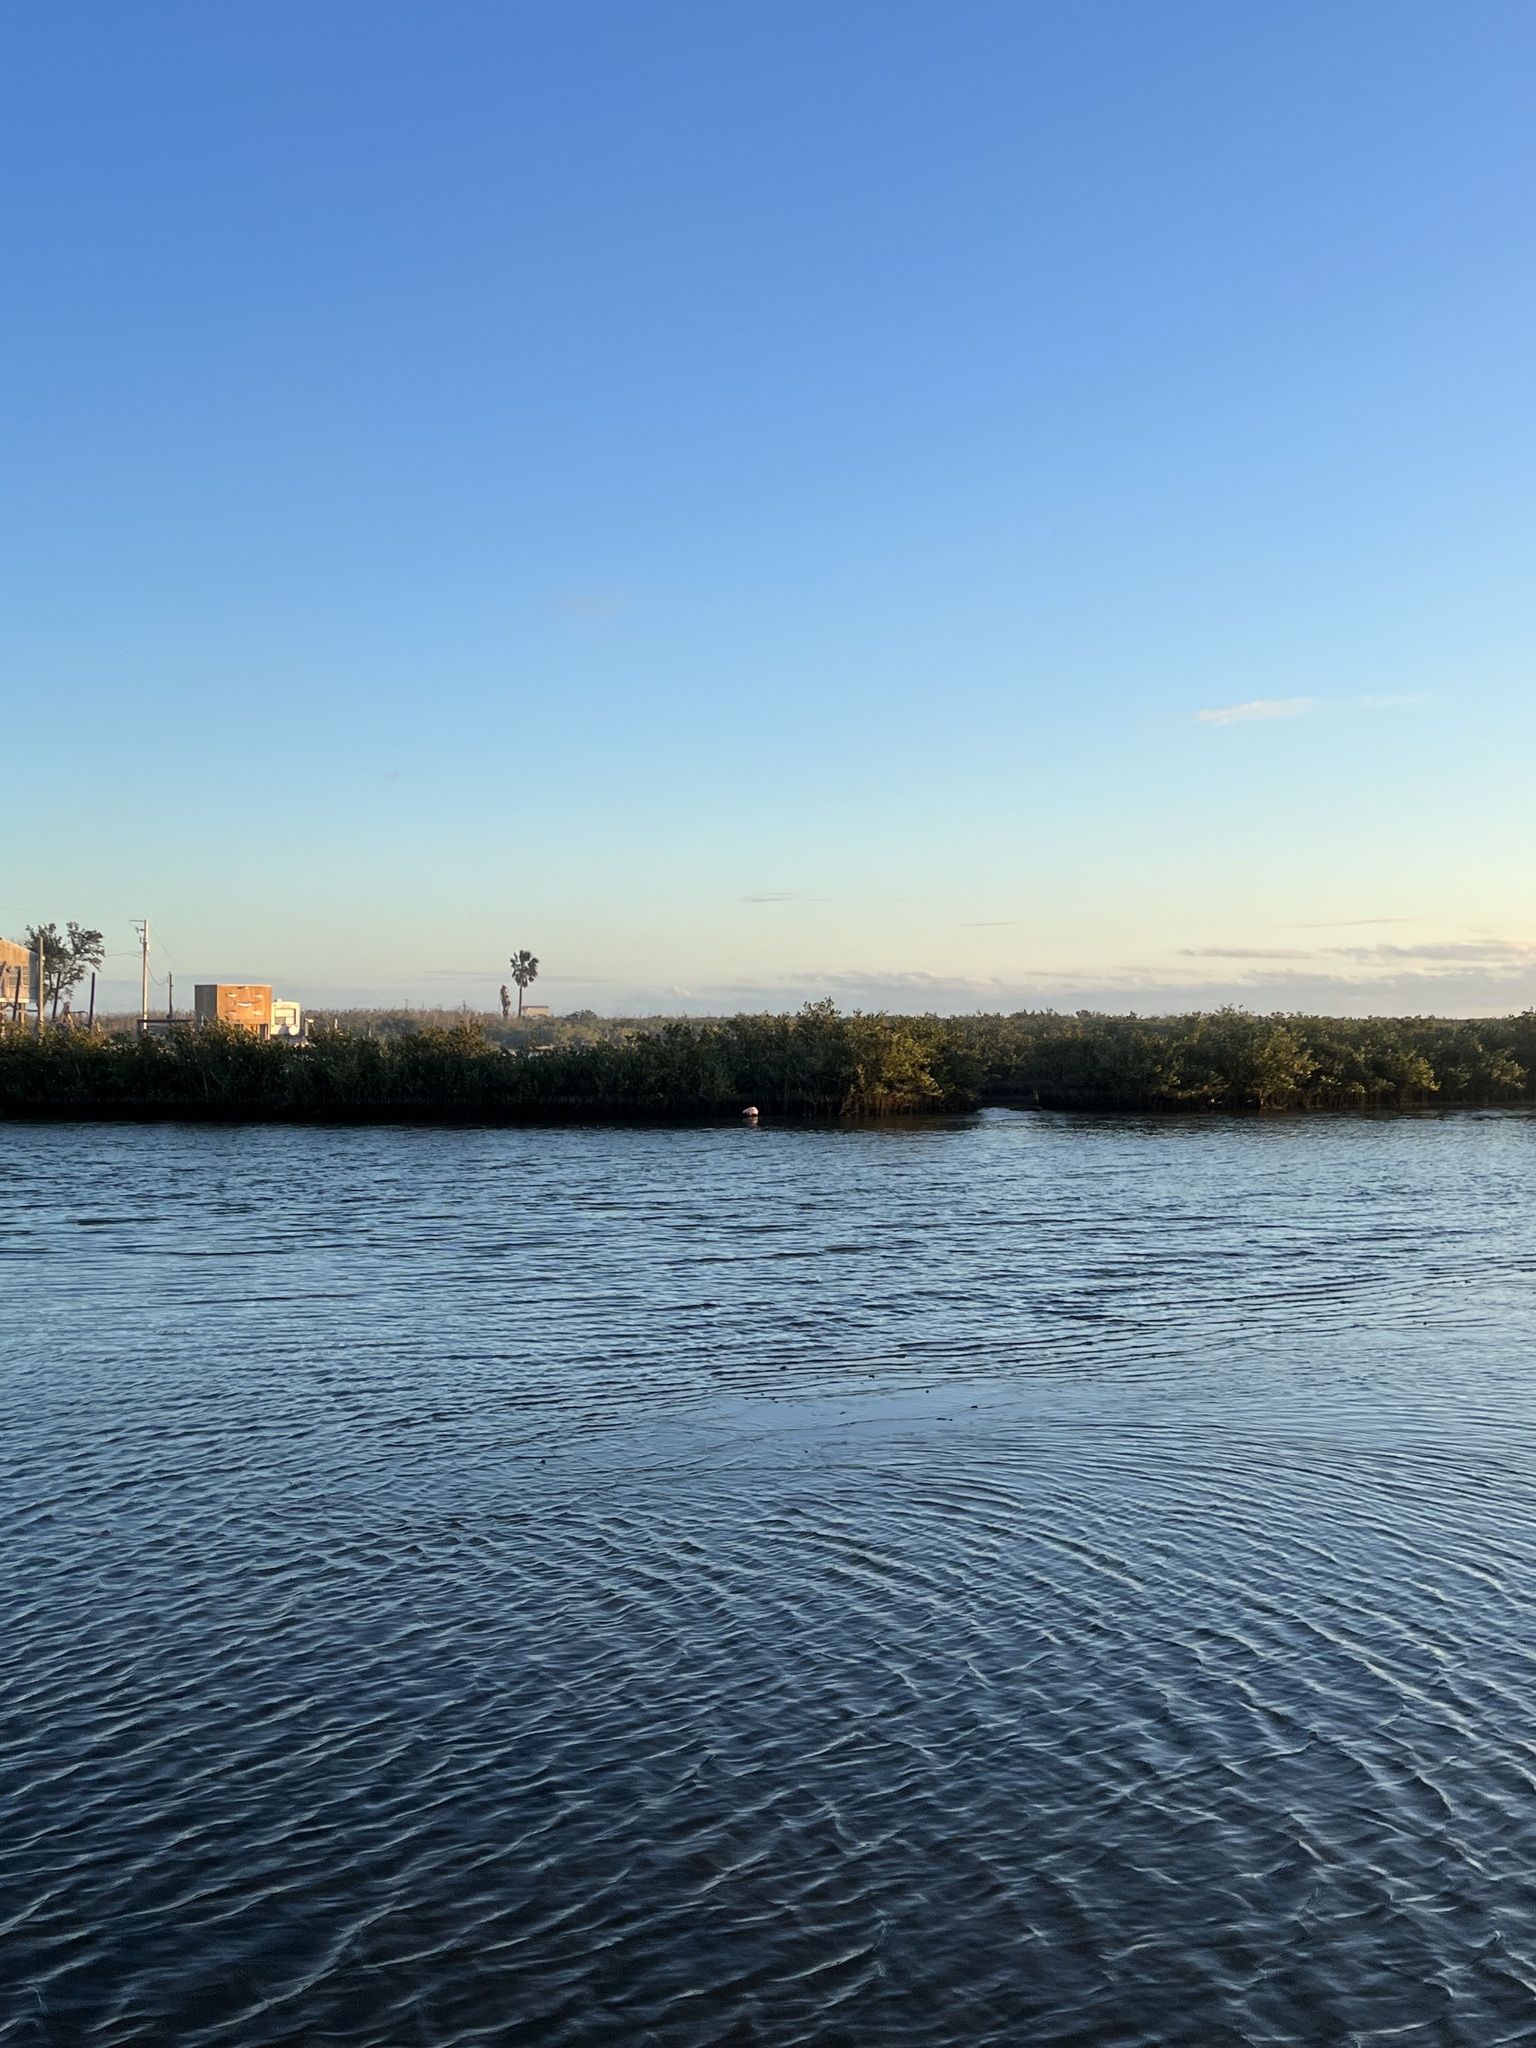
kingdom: Animalia
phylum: Chordata
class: Aves
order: Pelecaniformes
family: Threskiornithidae
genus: Platalea
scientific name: Platalea ajaja
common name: Roseate spoonbill
